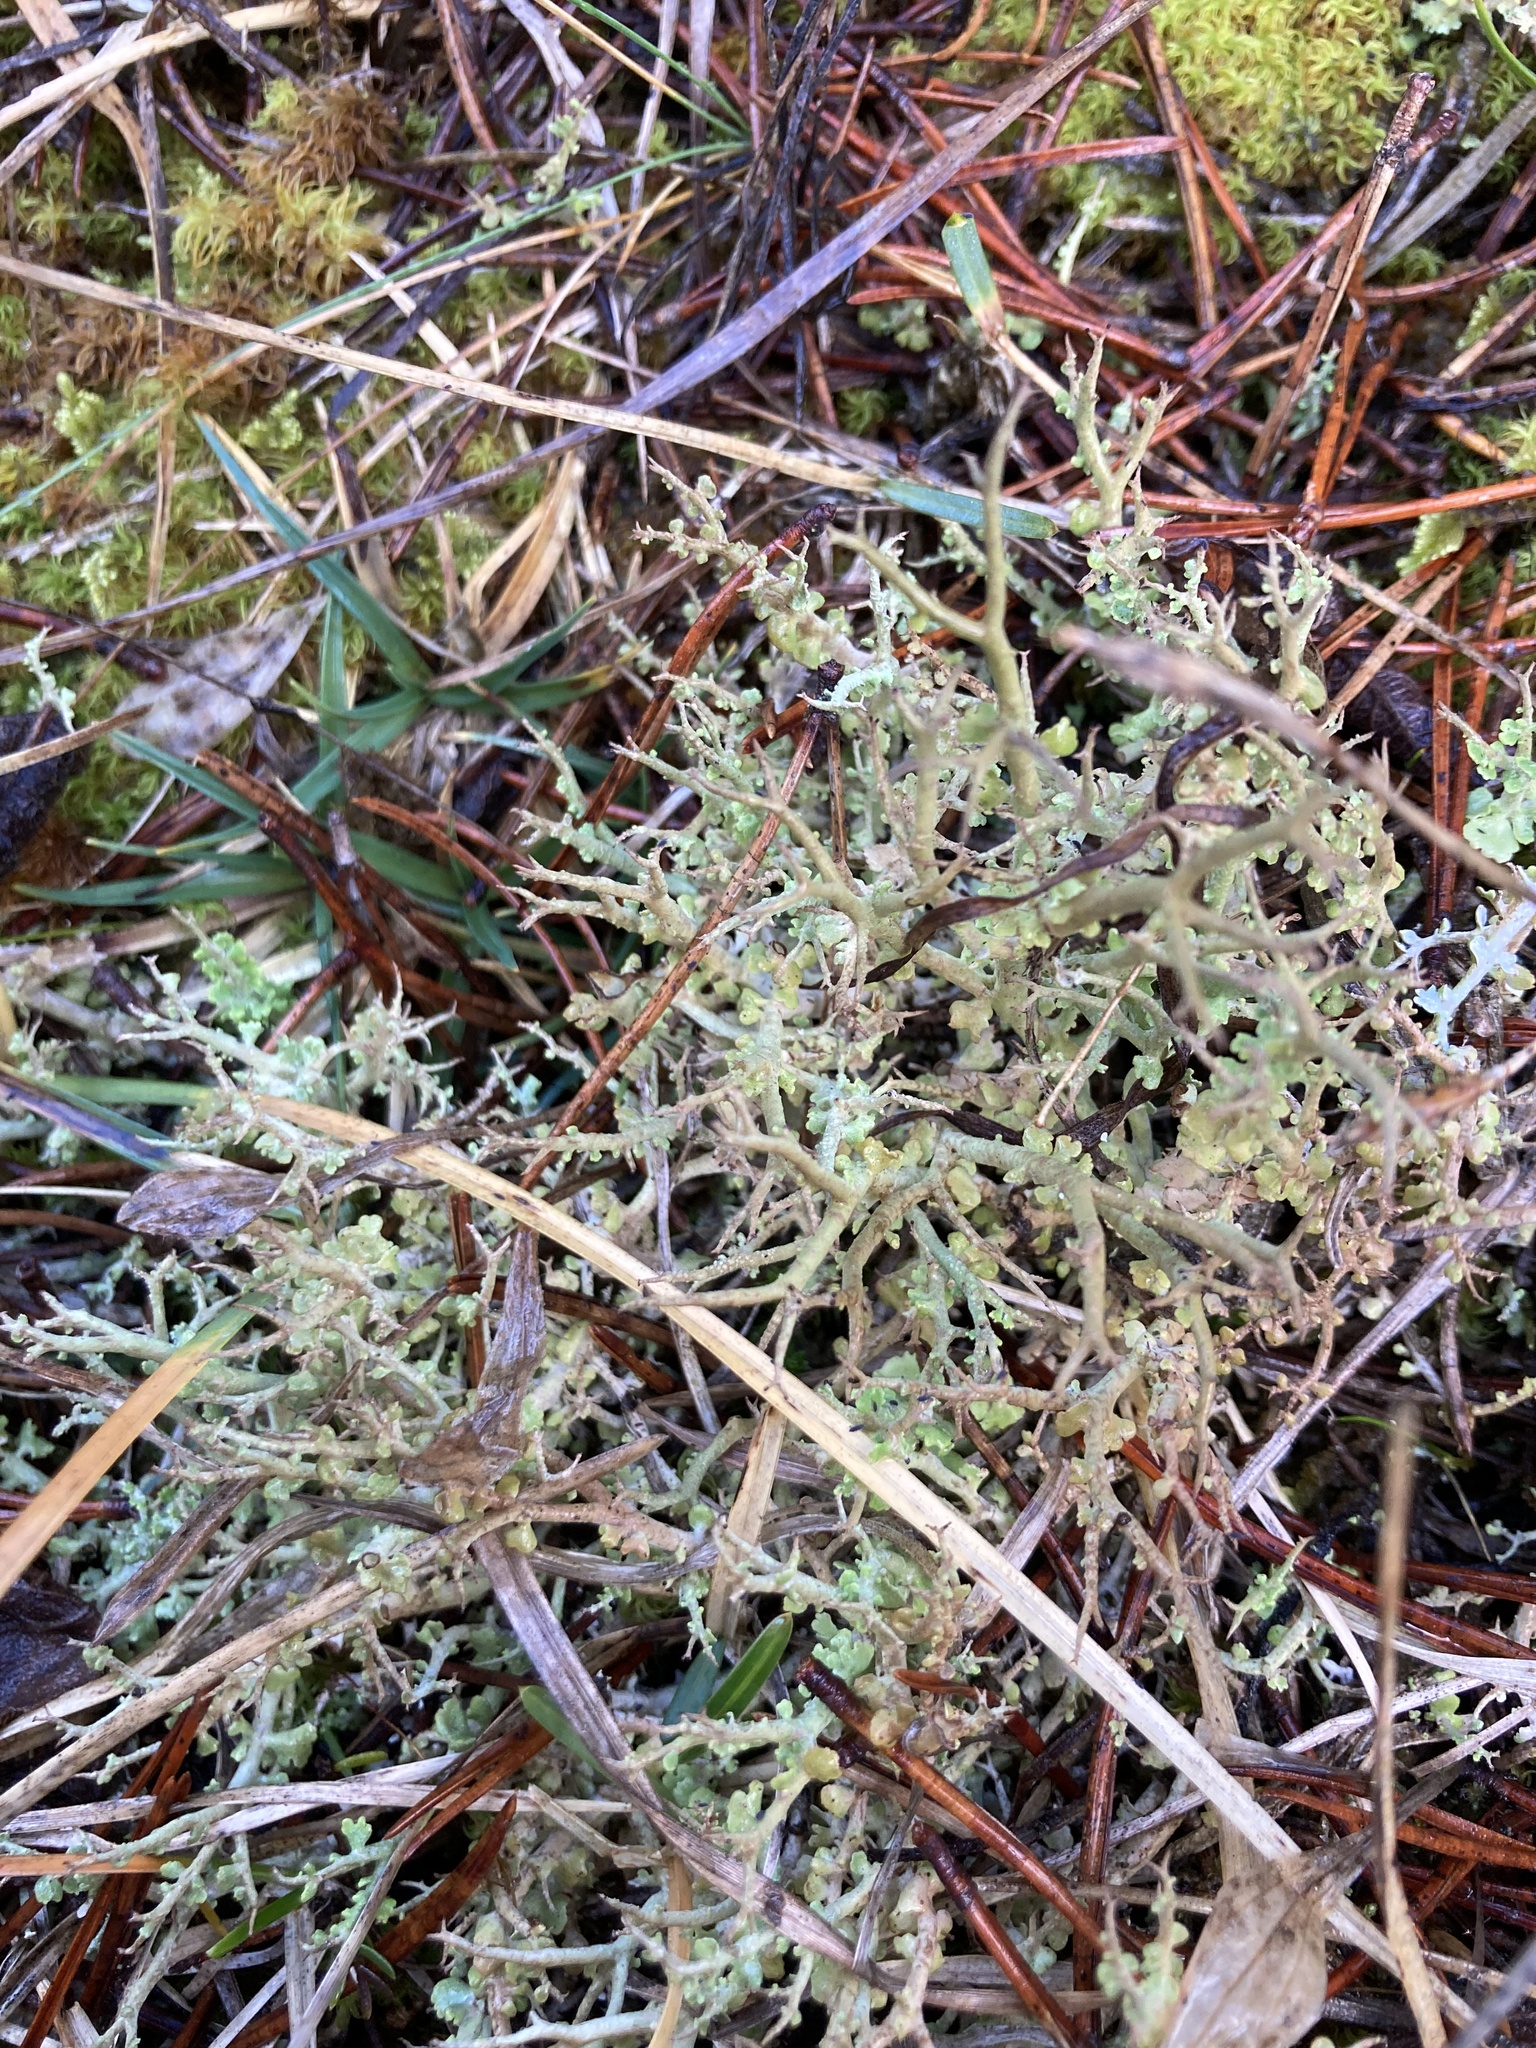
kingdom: Fungi
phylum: Ascomycota
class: Lecanoromycetes
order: Lecanorales
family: Cladoniaceae
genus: Cladonia
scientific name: Cladonia furcata
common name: Many-forked cladonia
